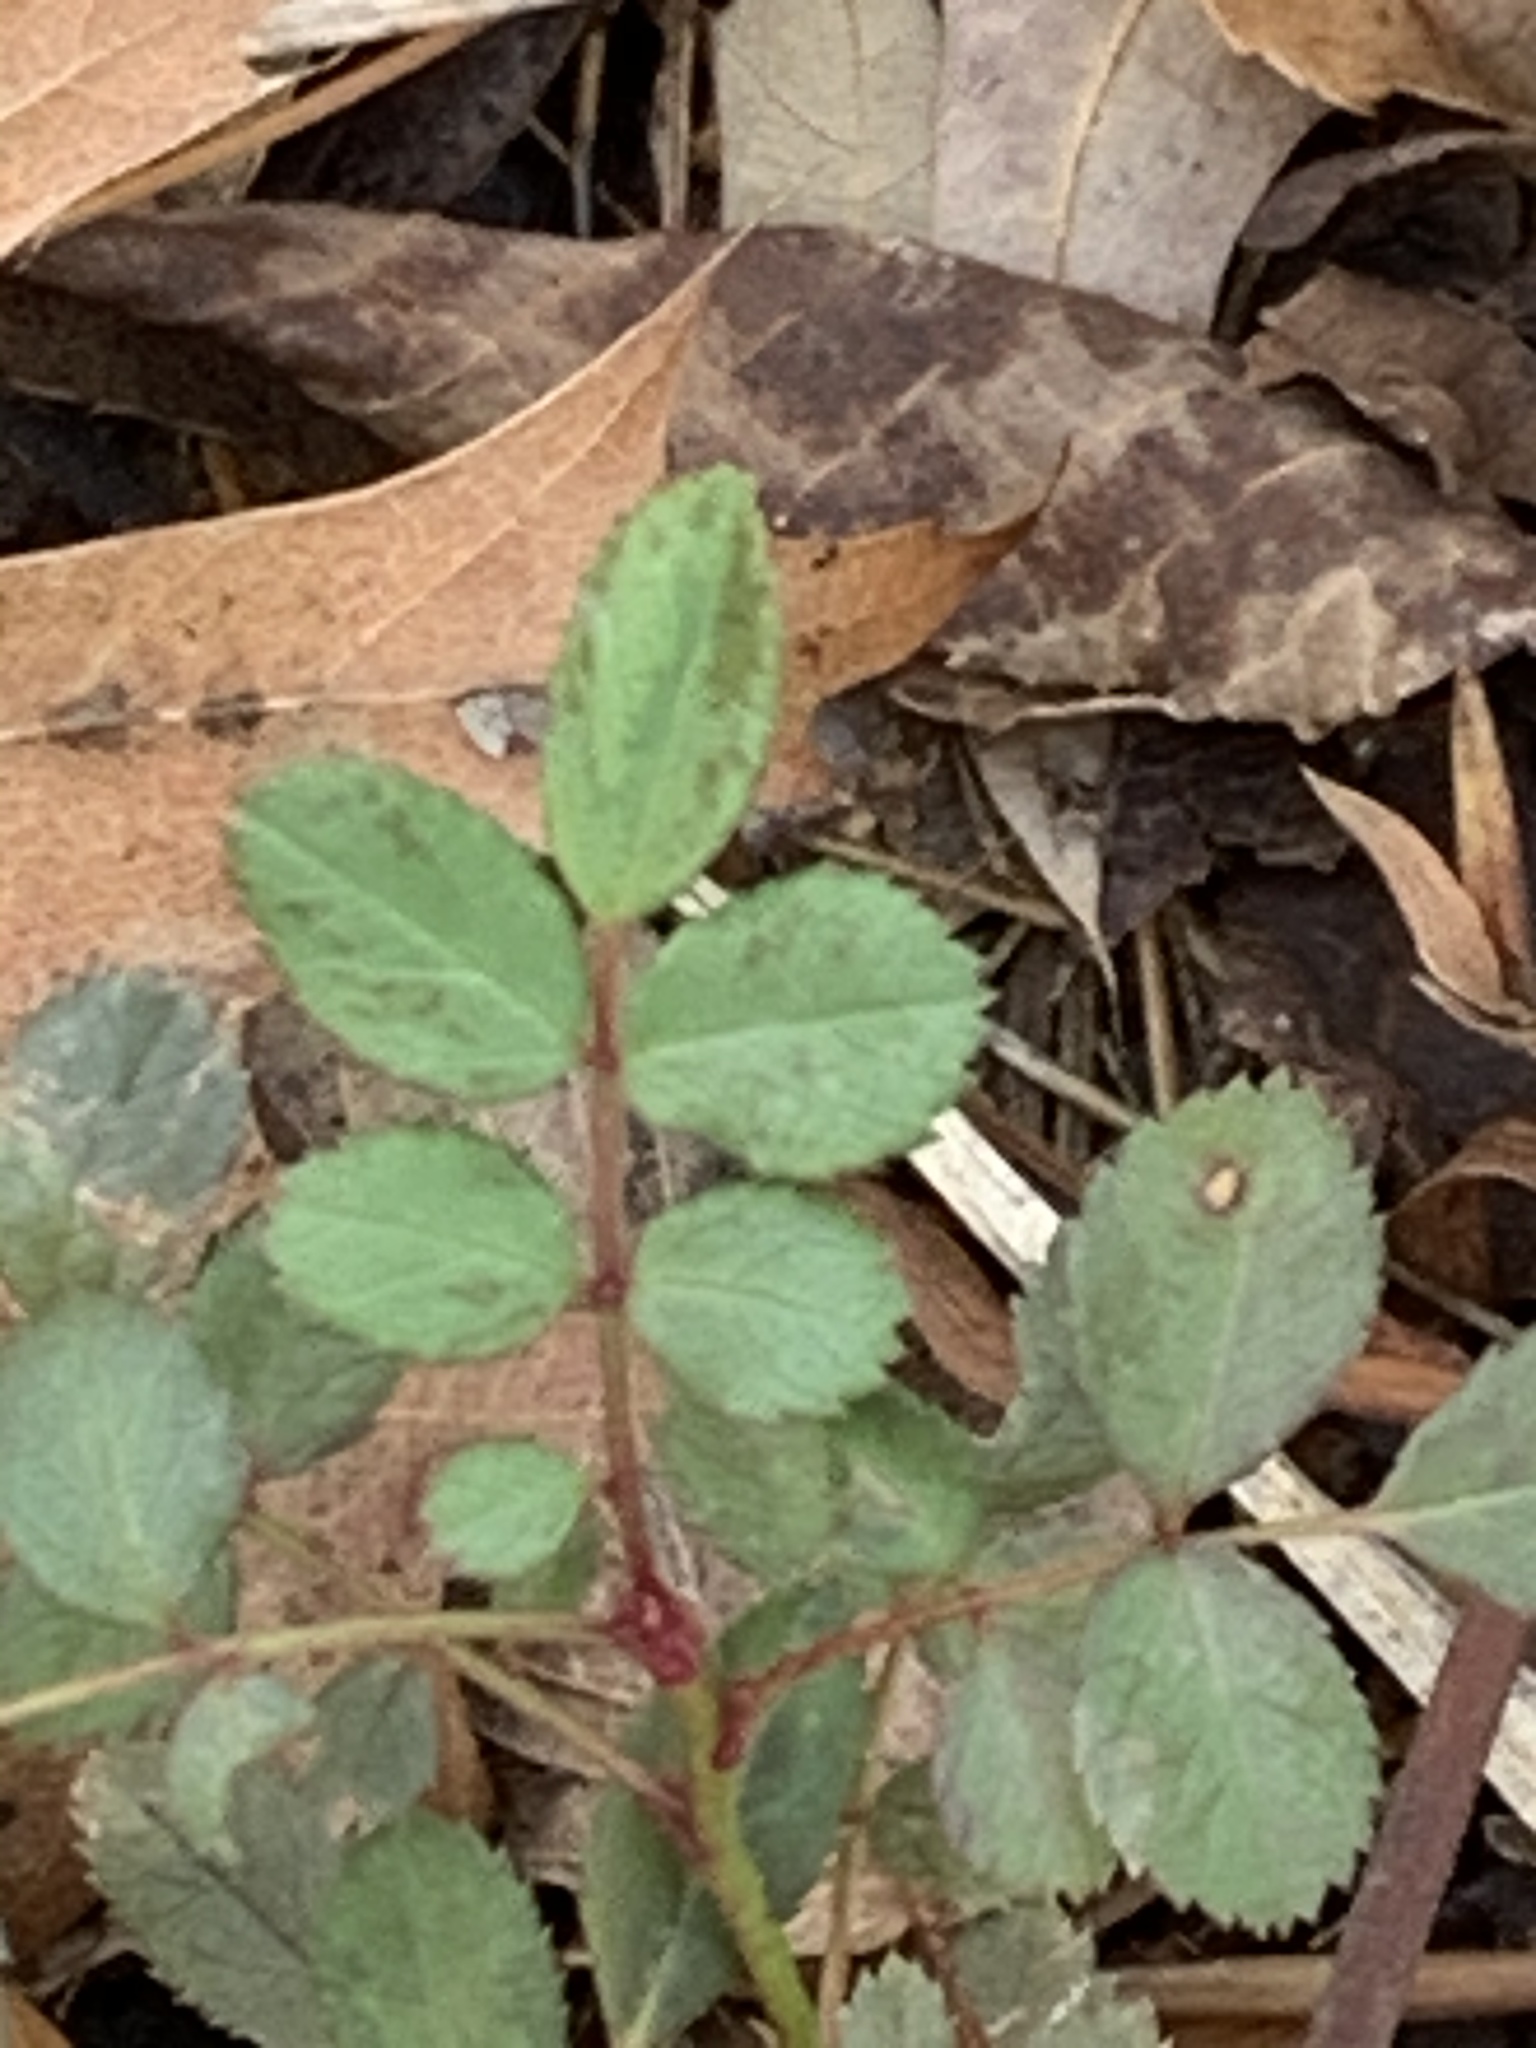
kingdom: Plantae
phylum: Tracheophyta
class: Magnoliopsida
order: Rosales
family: Rosaceae
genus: Rosa
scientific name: Rosa multiflora
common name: Multiflora rose
